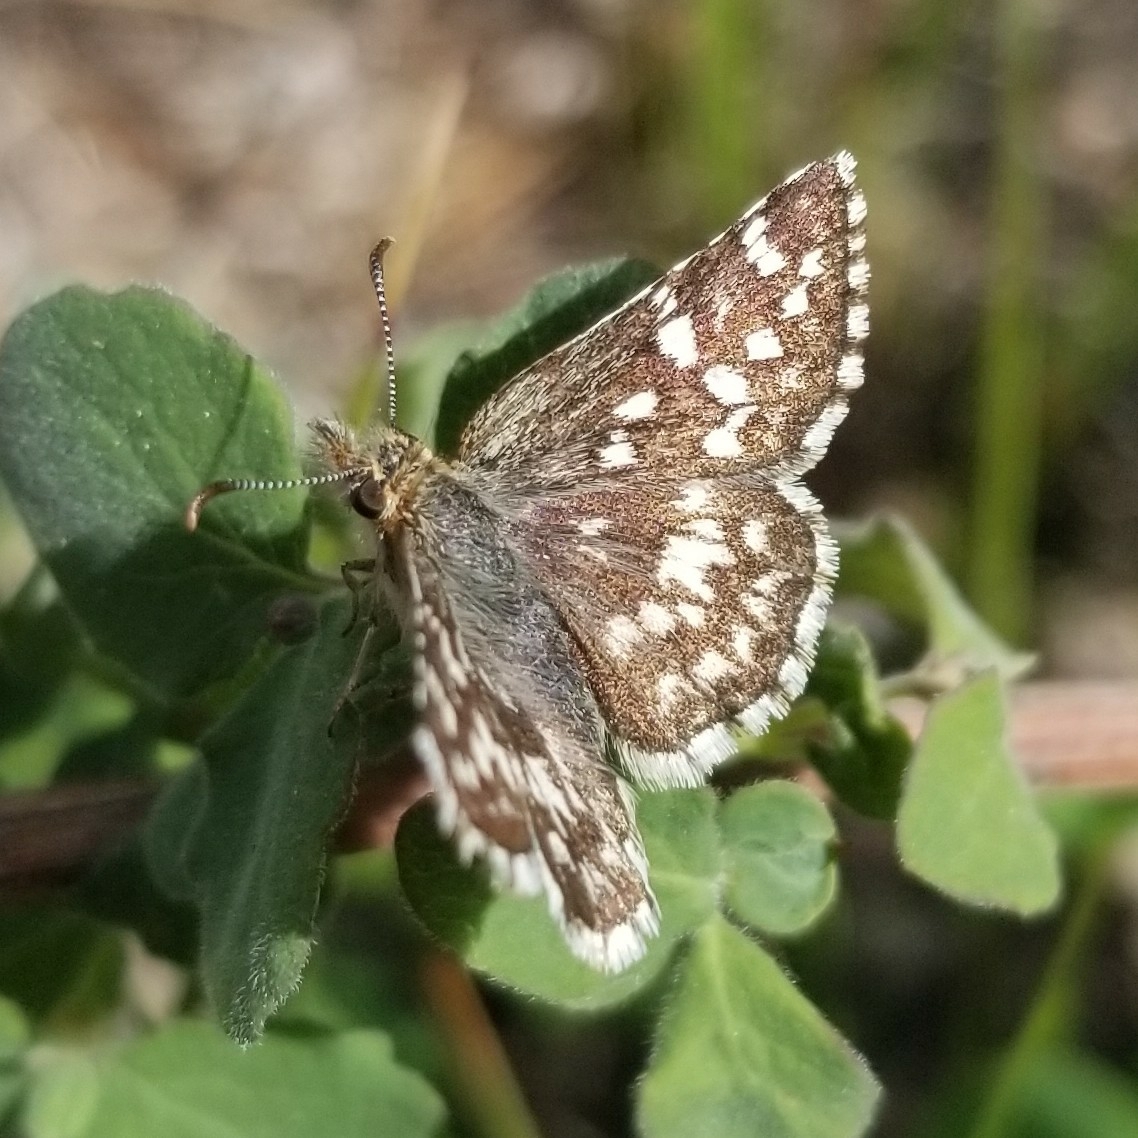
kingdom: Animalia
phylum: Arthropoda
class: Insecta
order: Lepidoptera
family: Hesperiidae
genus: Pyrgus
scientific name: Pyrgus ruralis
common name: Two-banded checkered-skipper
